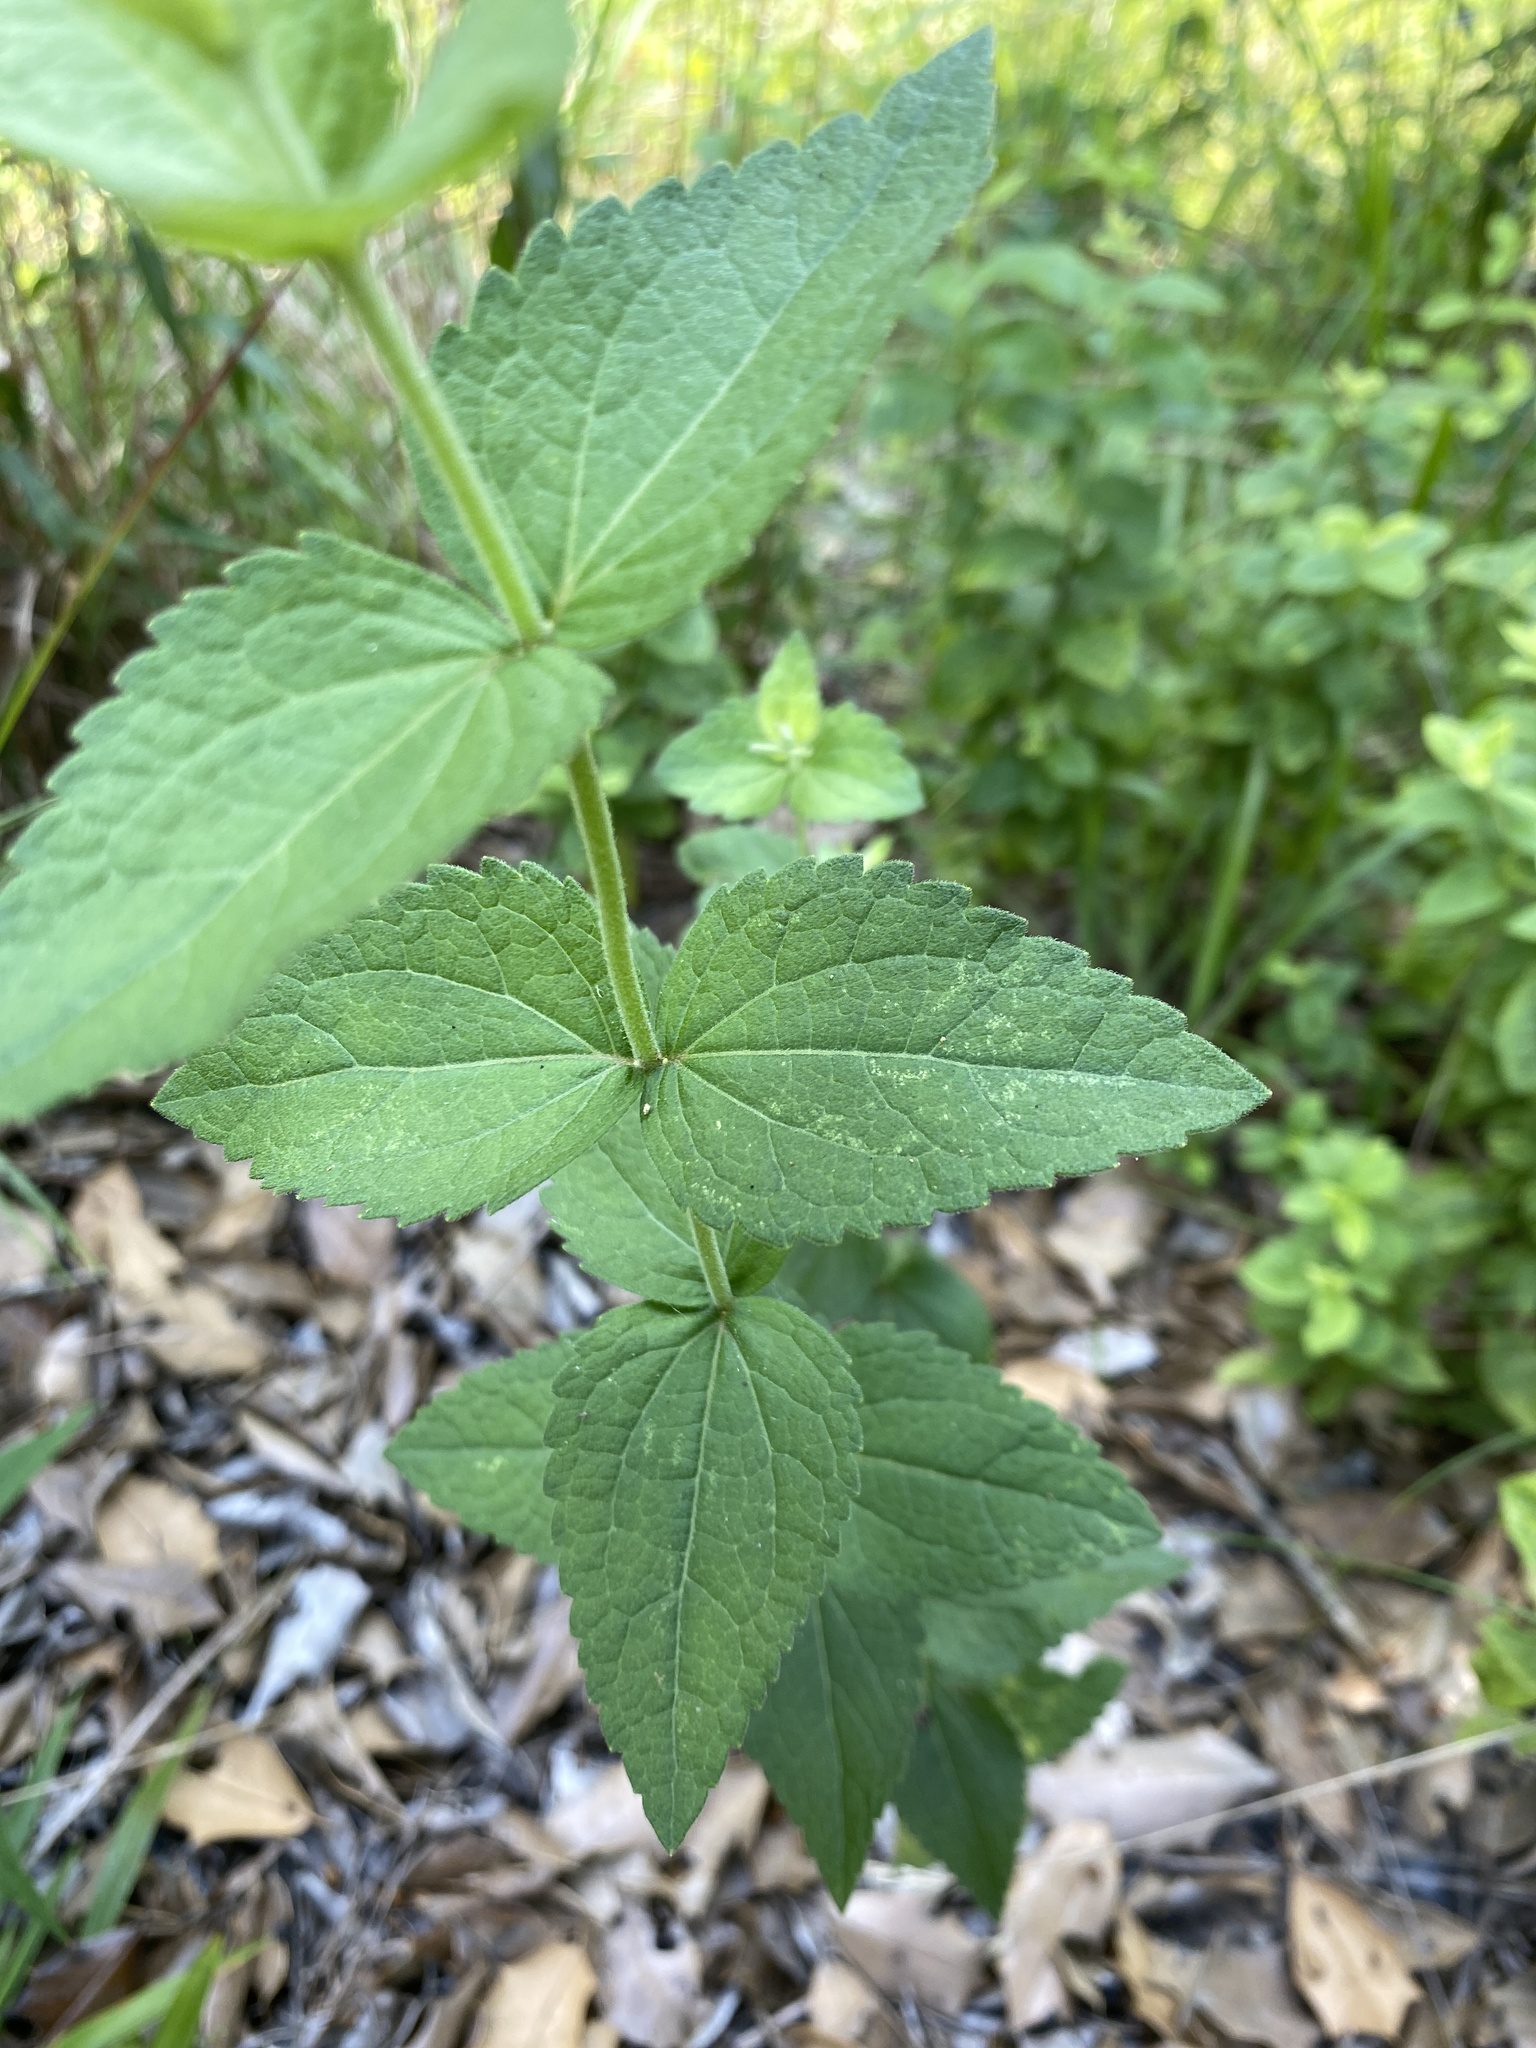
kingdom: Plantae
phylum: Tracheophyta
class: Magnoliopsida
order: Asterales
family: Asteraceae
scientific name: Asteraceae
